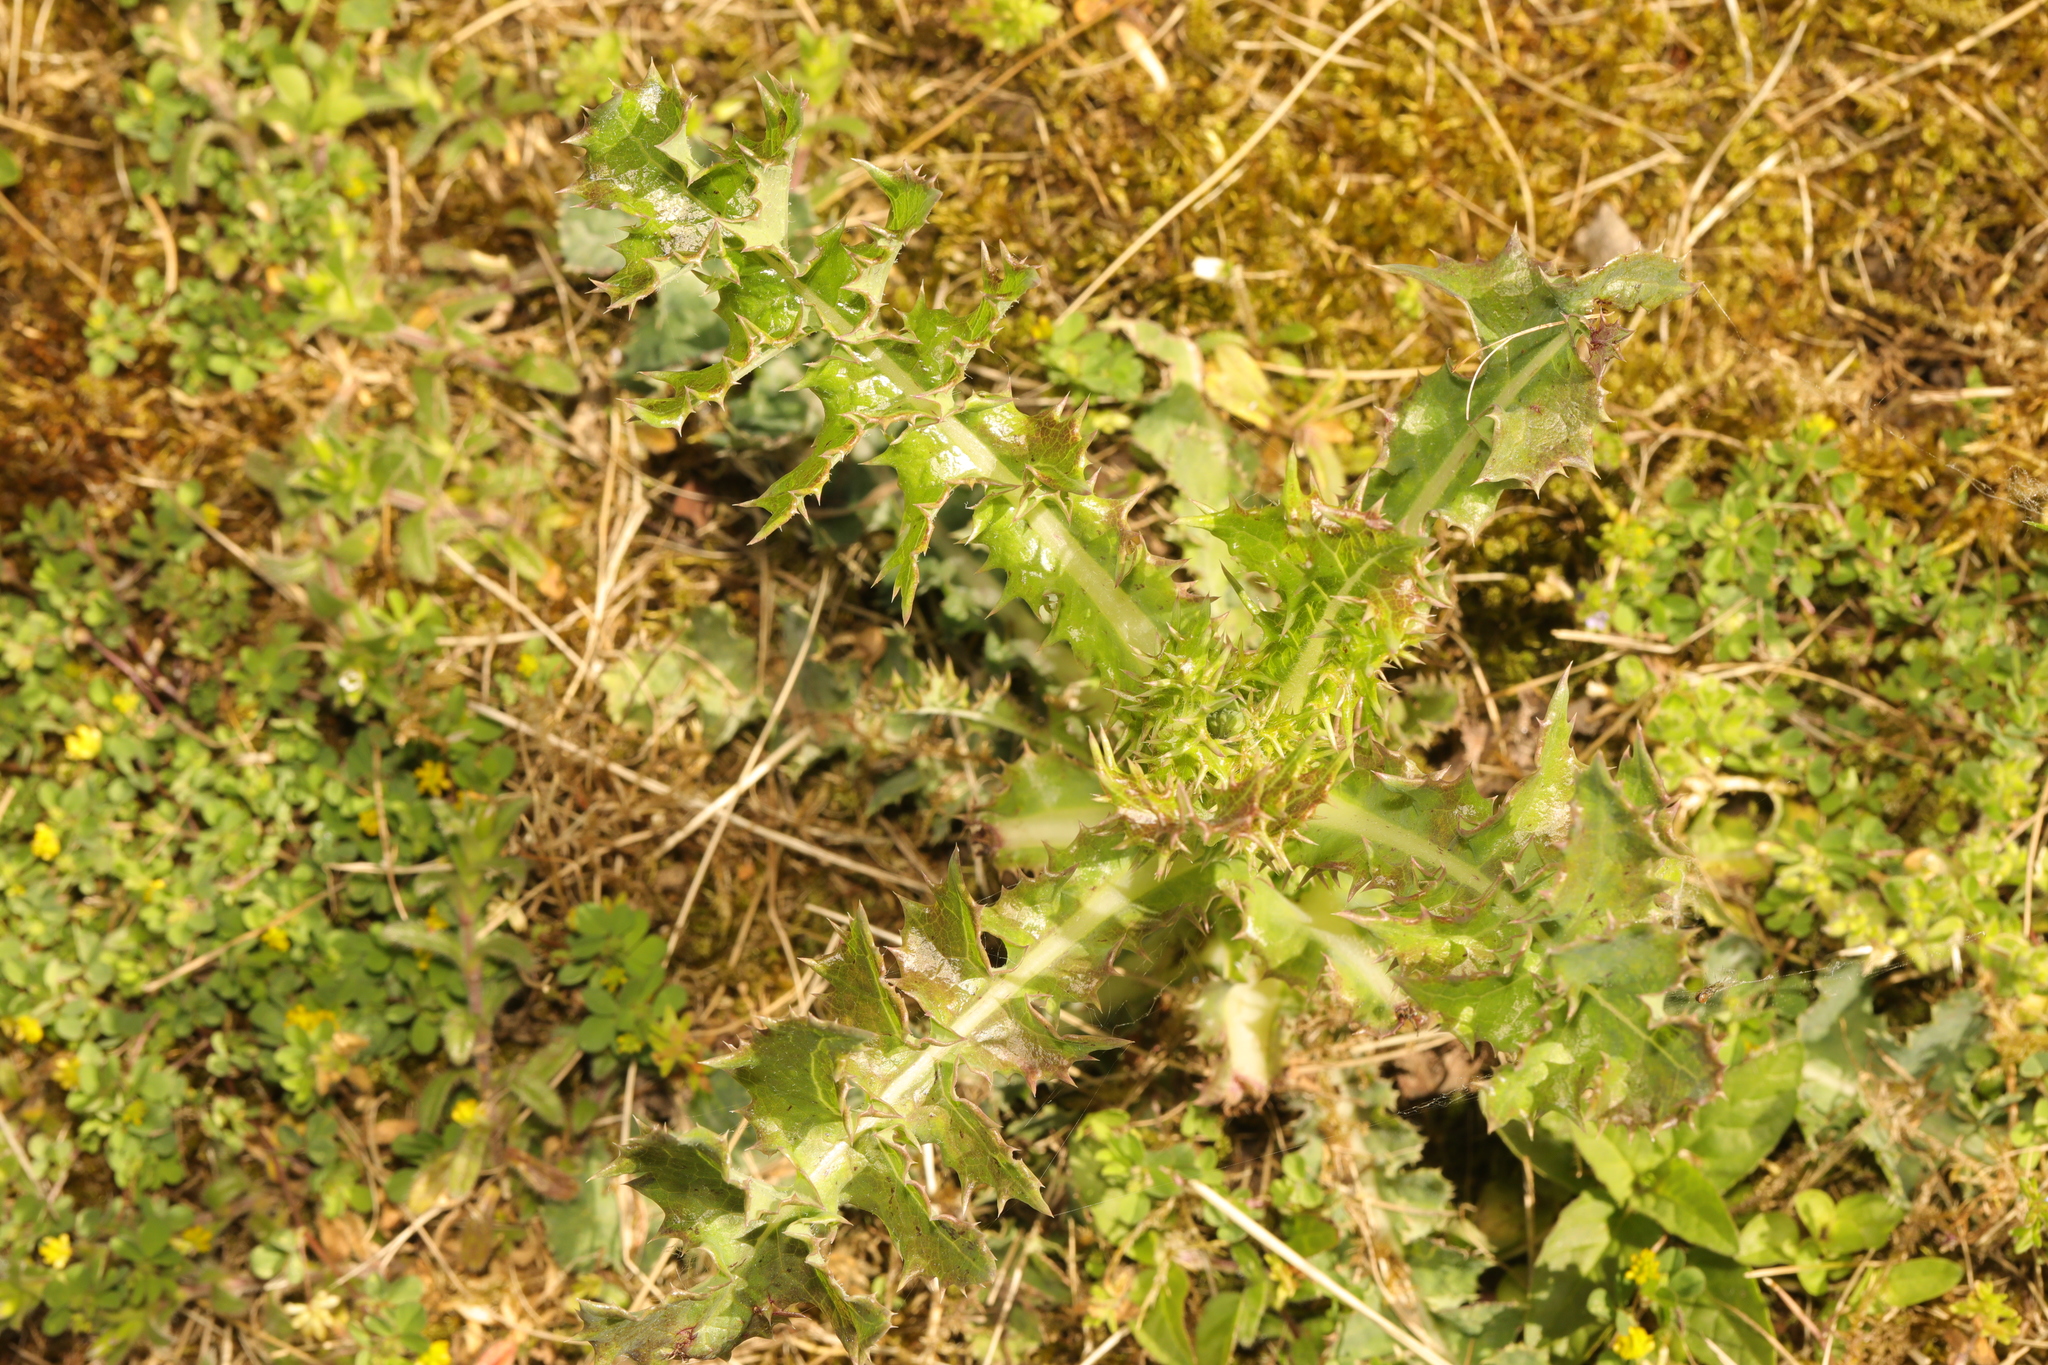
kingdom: Plantae
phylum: Tracheophyta
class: Magnoliopsida
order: Asterales
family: Asteraceae
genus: Sonchus
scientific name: Sonchus asper
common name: Prickly sow-thistle
